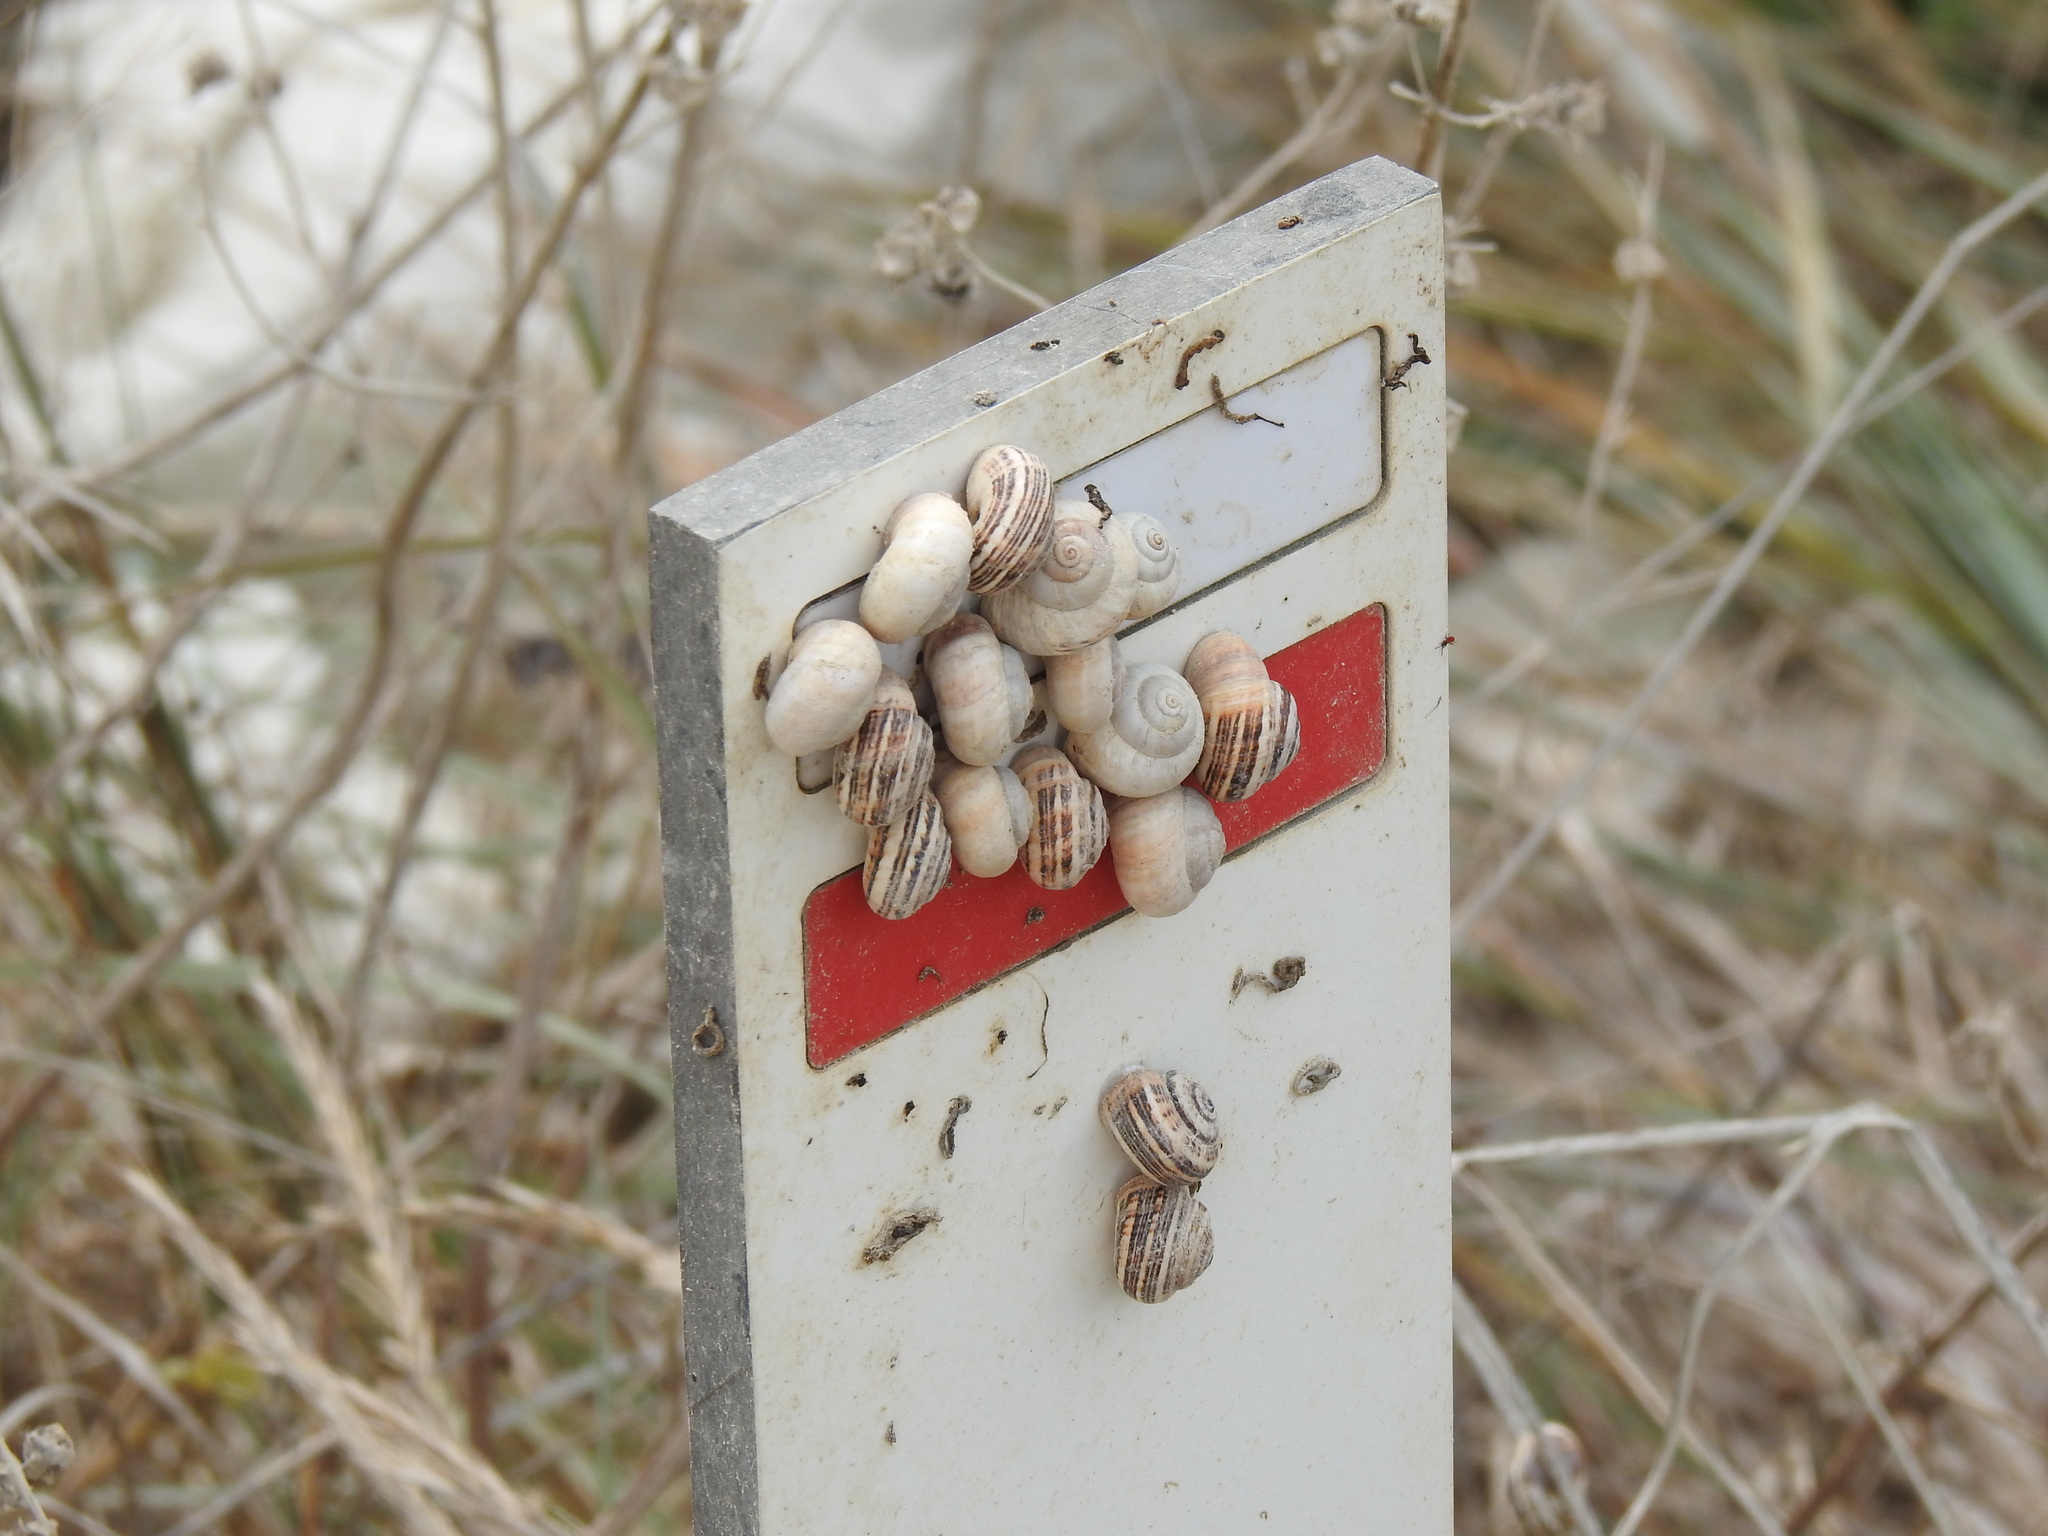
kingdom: Animalia
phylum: Mollusca
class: Gastropoda
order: Stylommatophora
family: Helicidae
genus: Theba
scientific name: Theba pisana
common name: White snail
